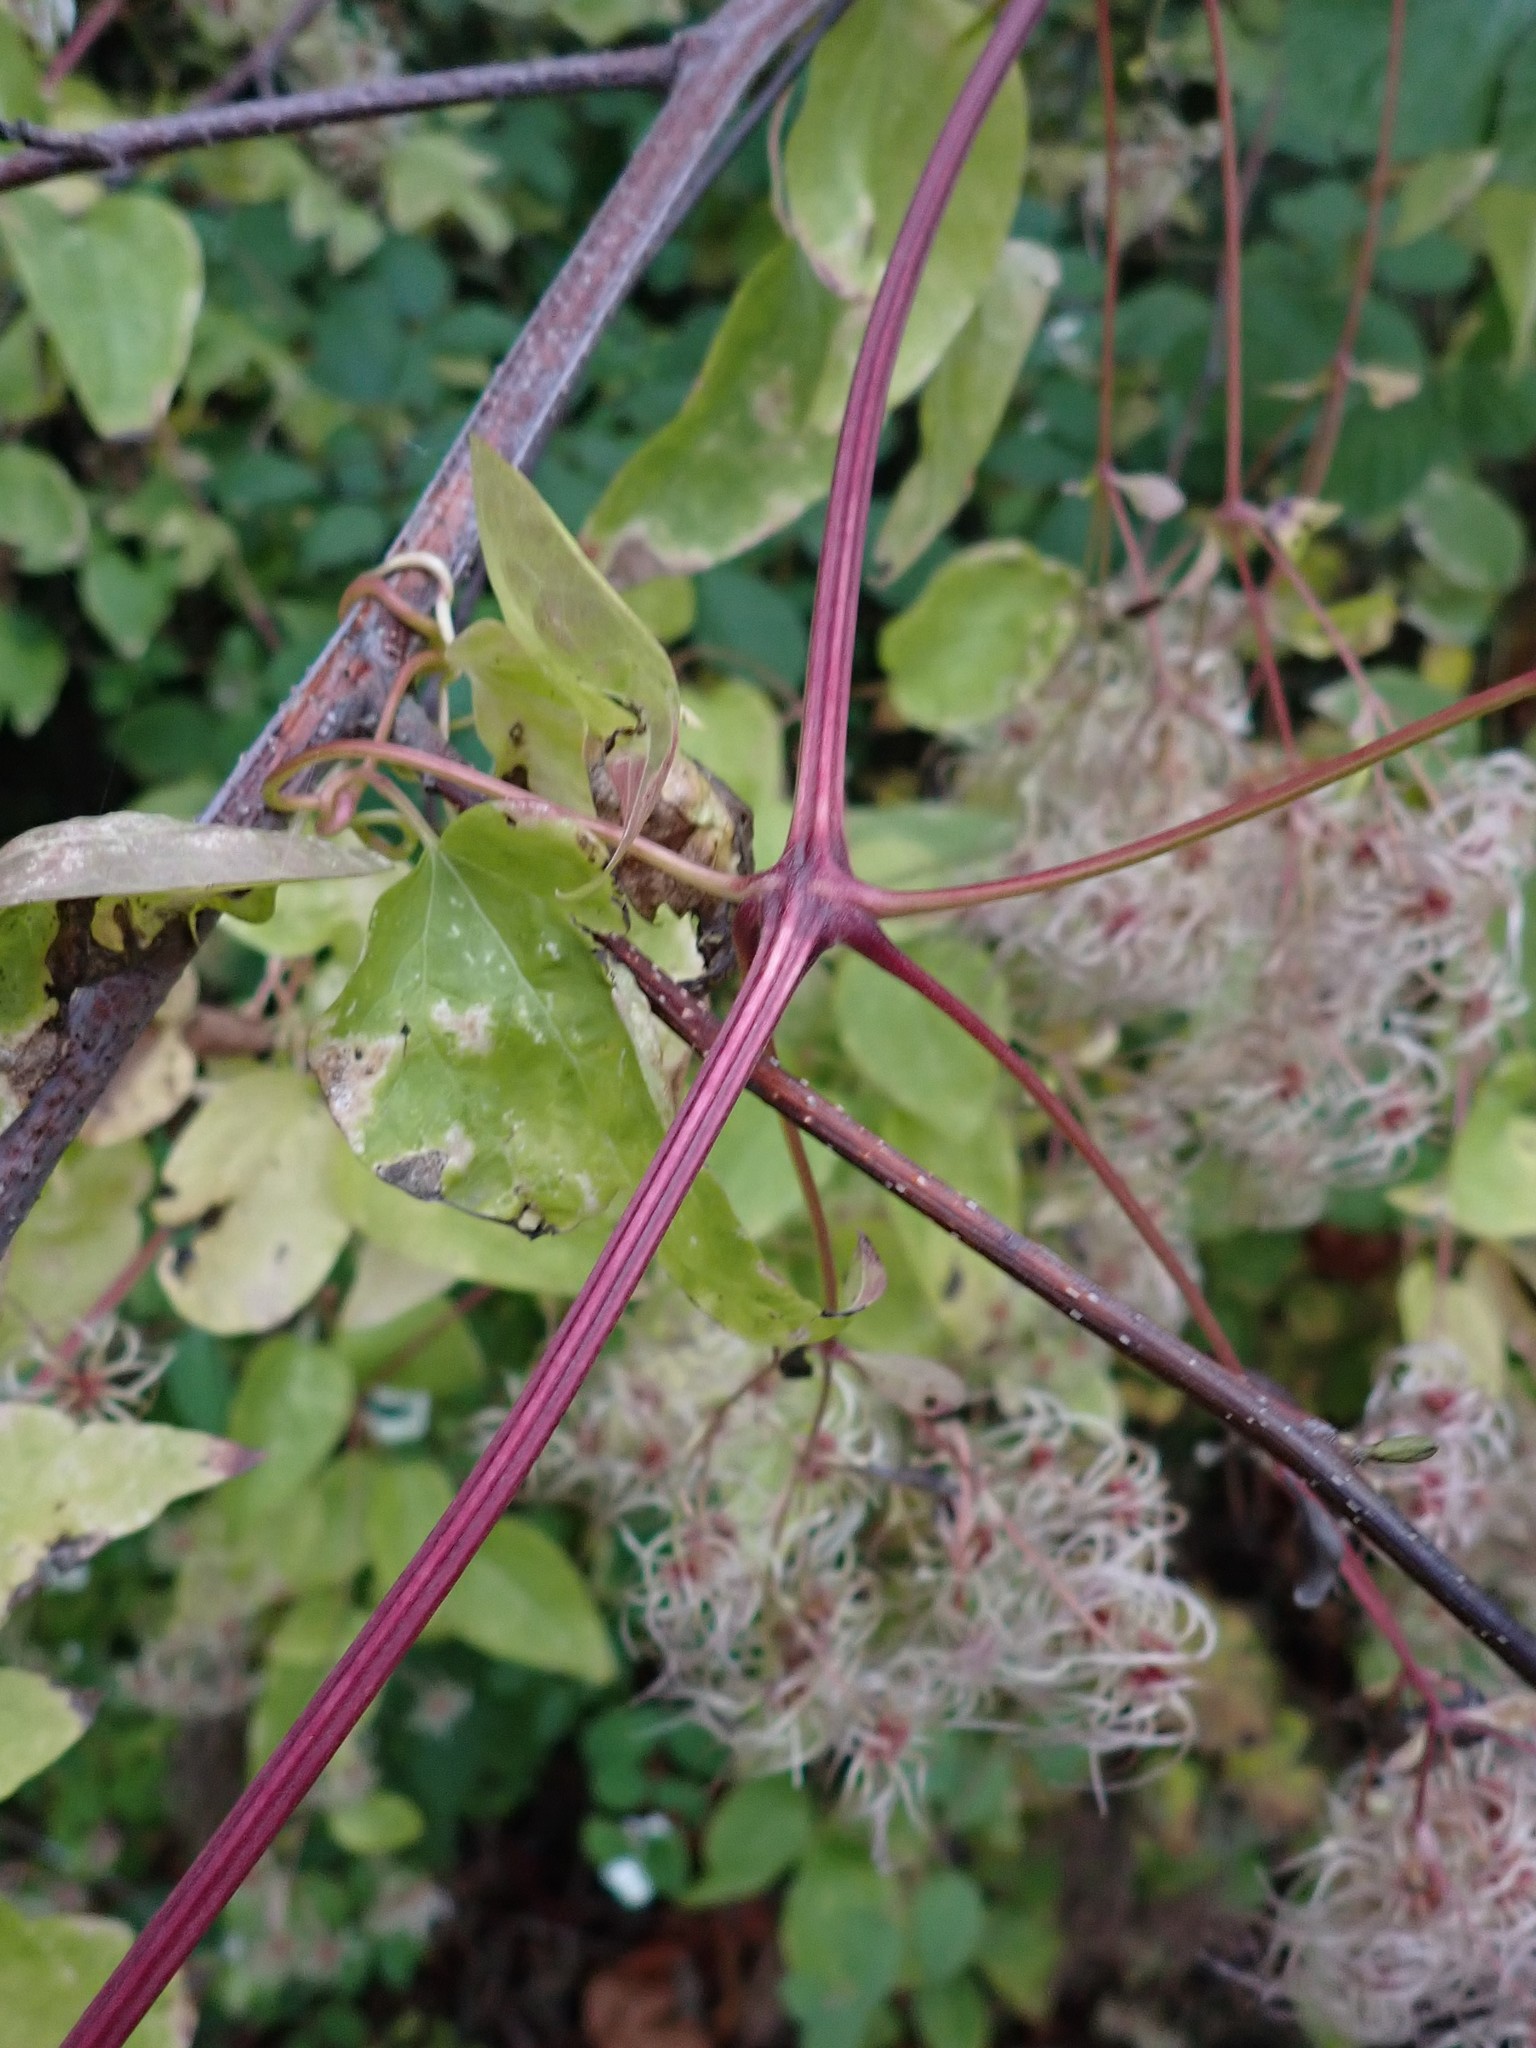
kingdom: Plantae
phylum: Tracheophyta
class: Magnoliopsida
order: Ranunculales
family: Ranunculaceae
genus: Clematis
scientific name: Clematis vitalba
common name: Evergreen clematis
